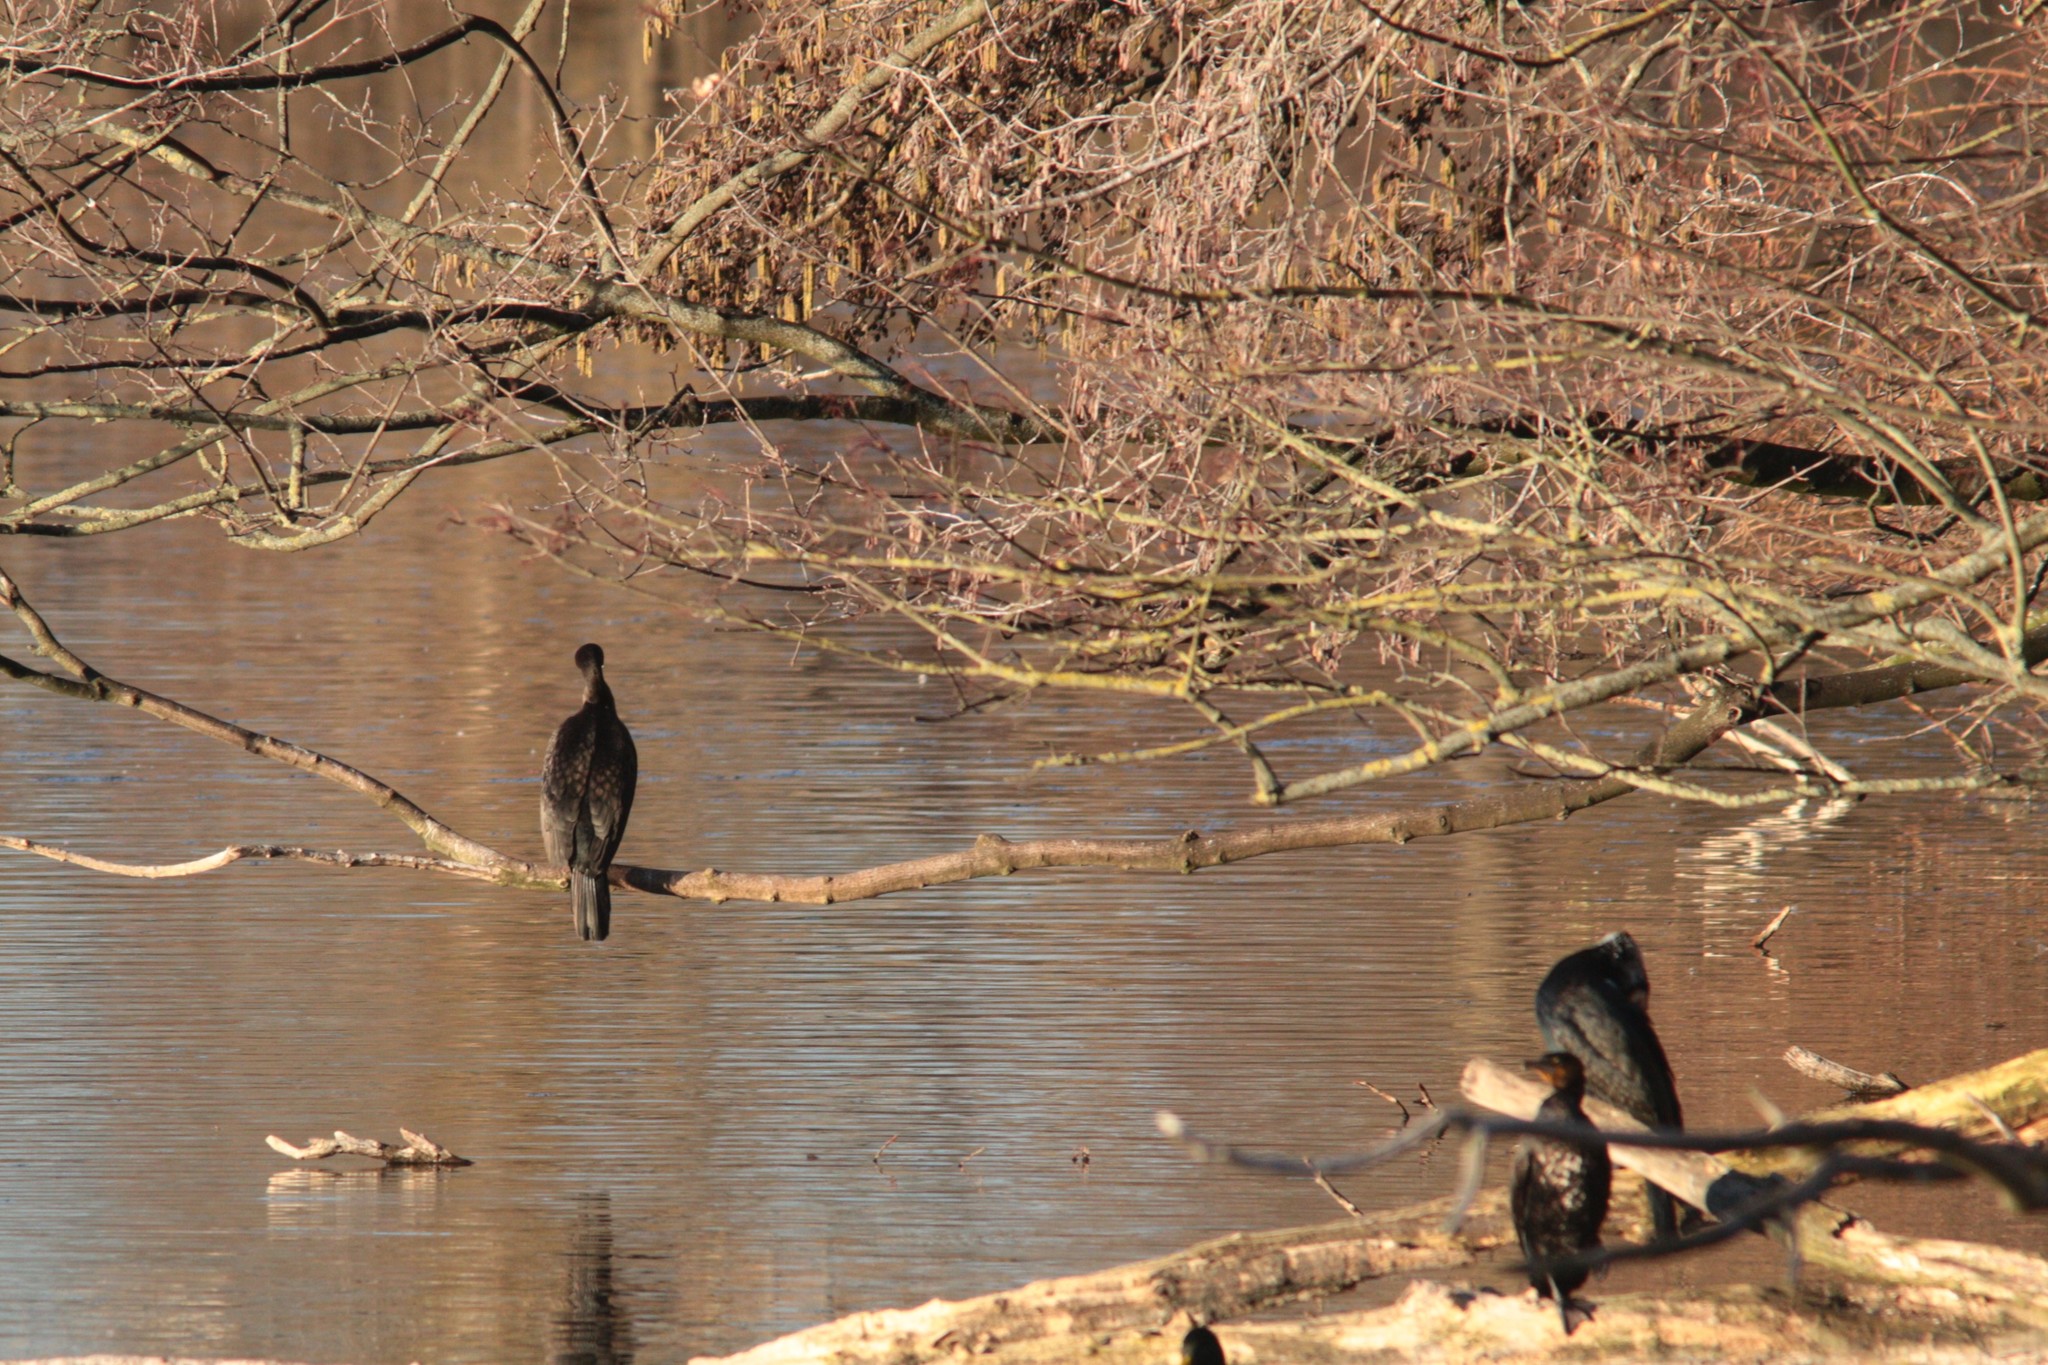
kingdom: Animalia
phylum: Chordata
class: Aves
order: Suliformes
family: Phalacrocoracidae
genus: Phalacrocorax
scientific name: Phalacrocorax carbo
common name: Great cormorant
